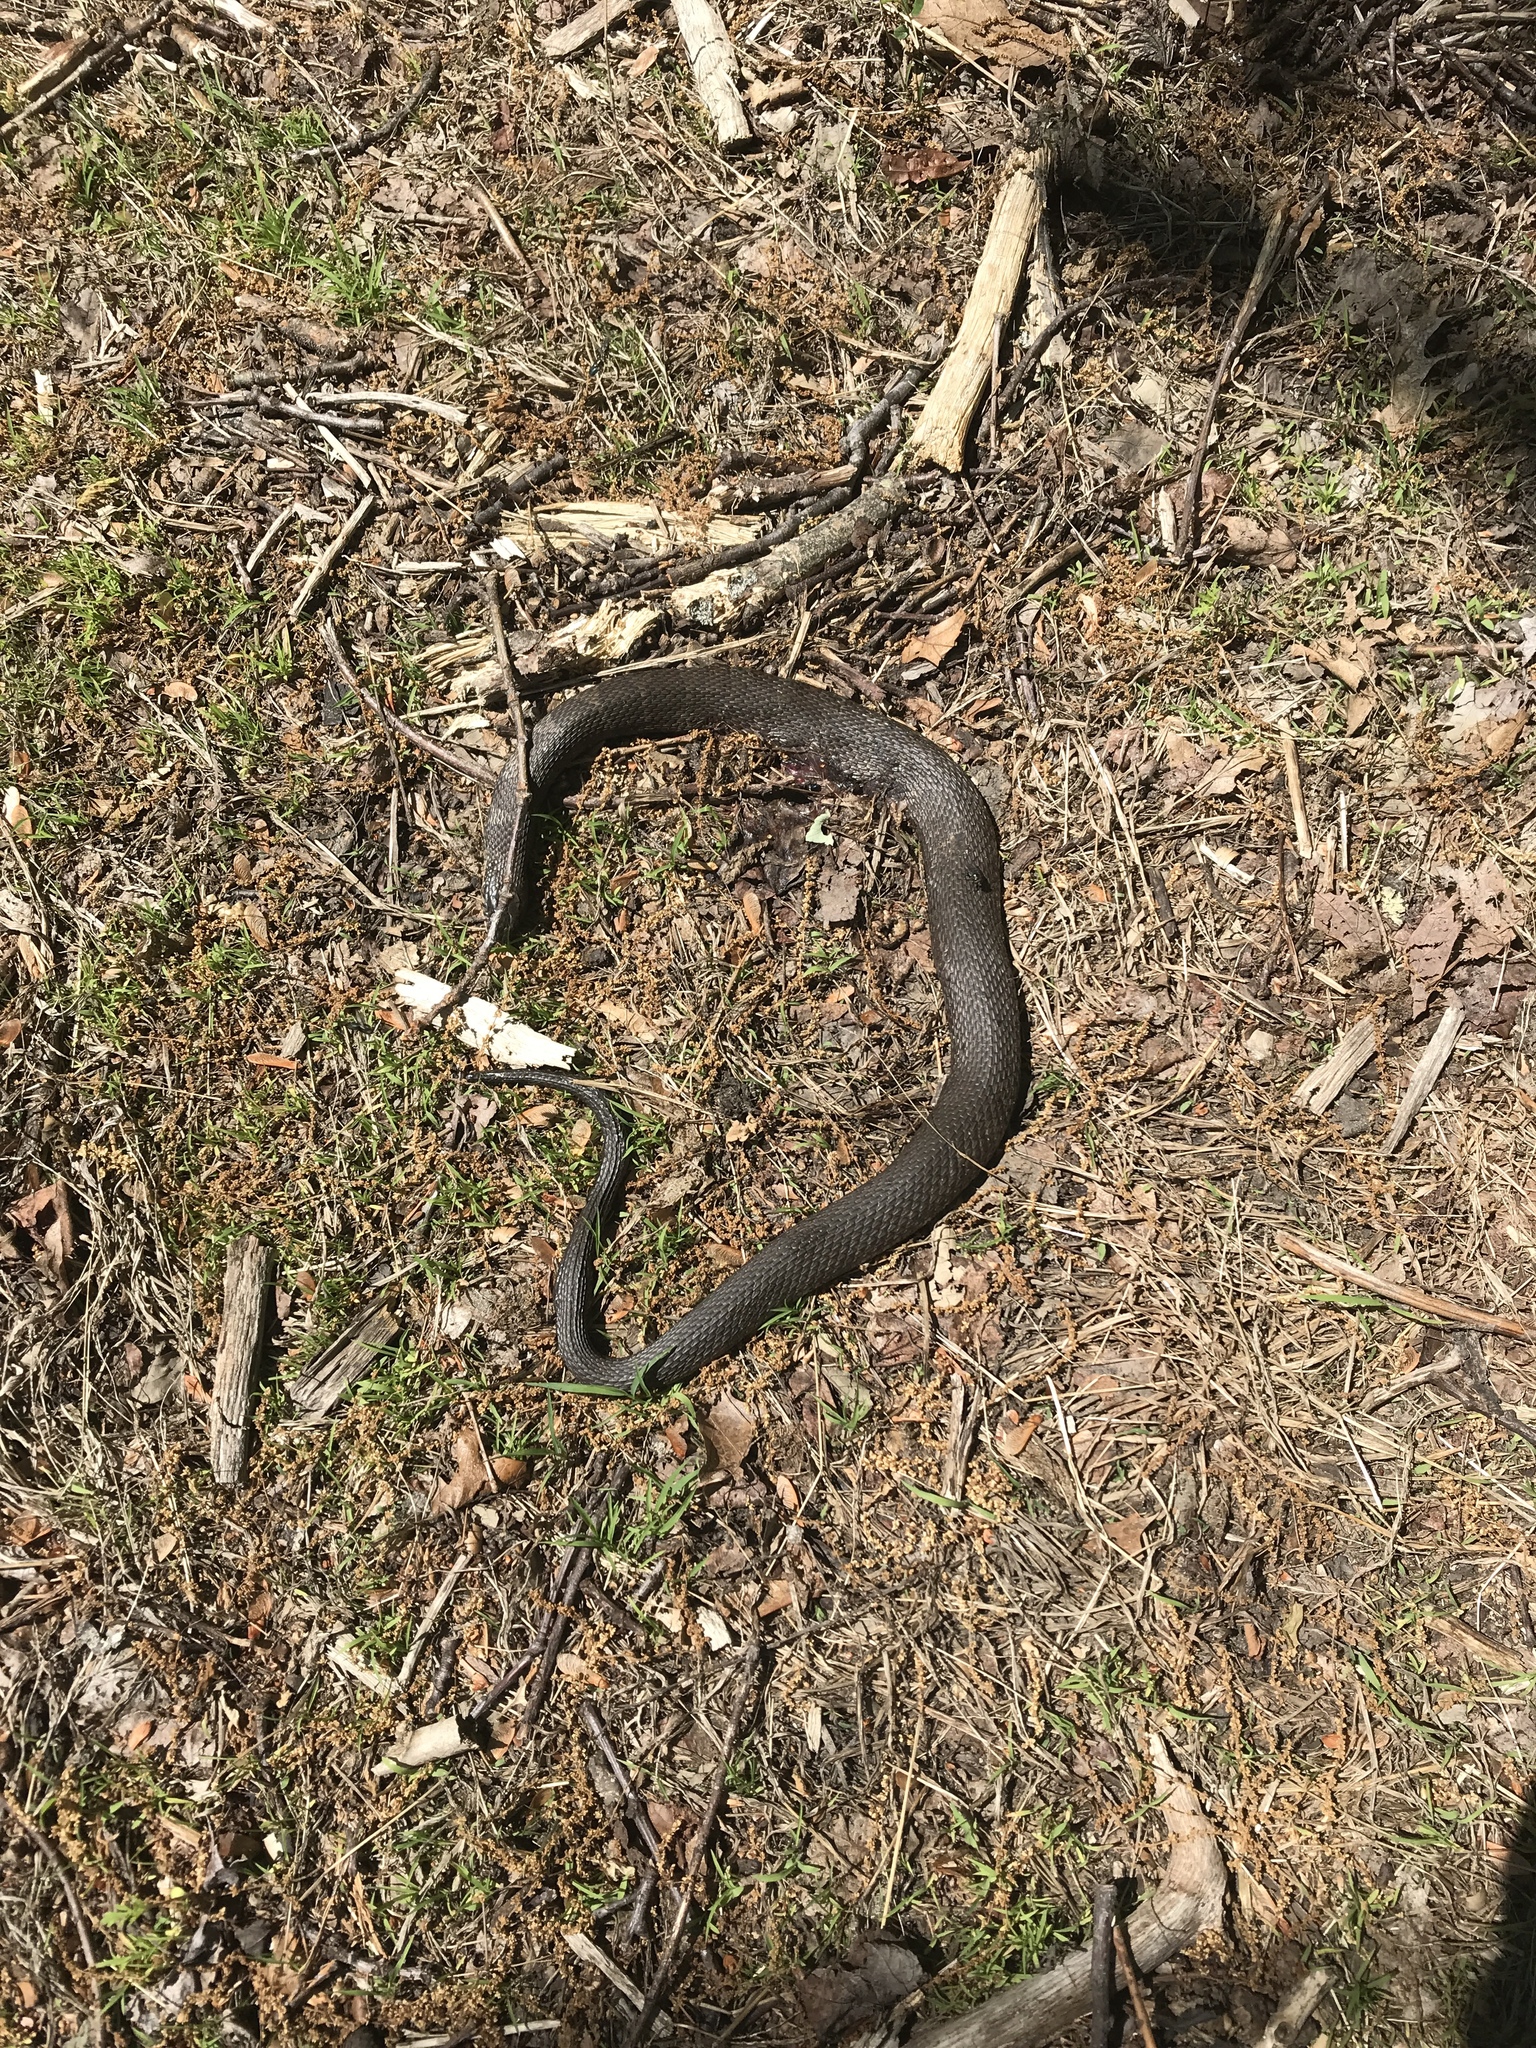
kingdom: Animalia
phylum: Chordata
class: Squamata
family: Colubridae
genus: Nerodia
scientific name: Nerodia sipedon
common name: Northern water snake
